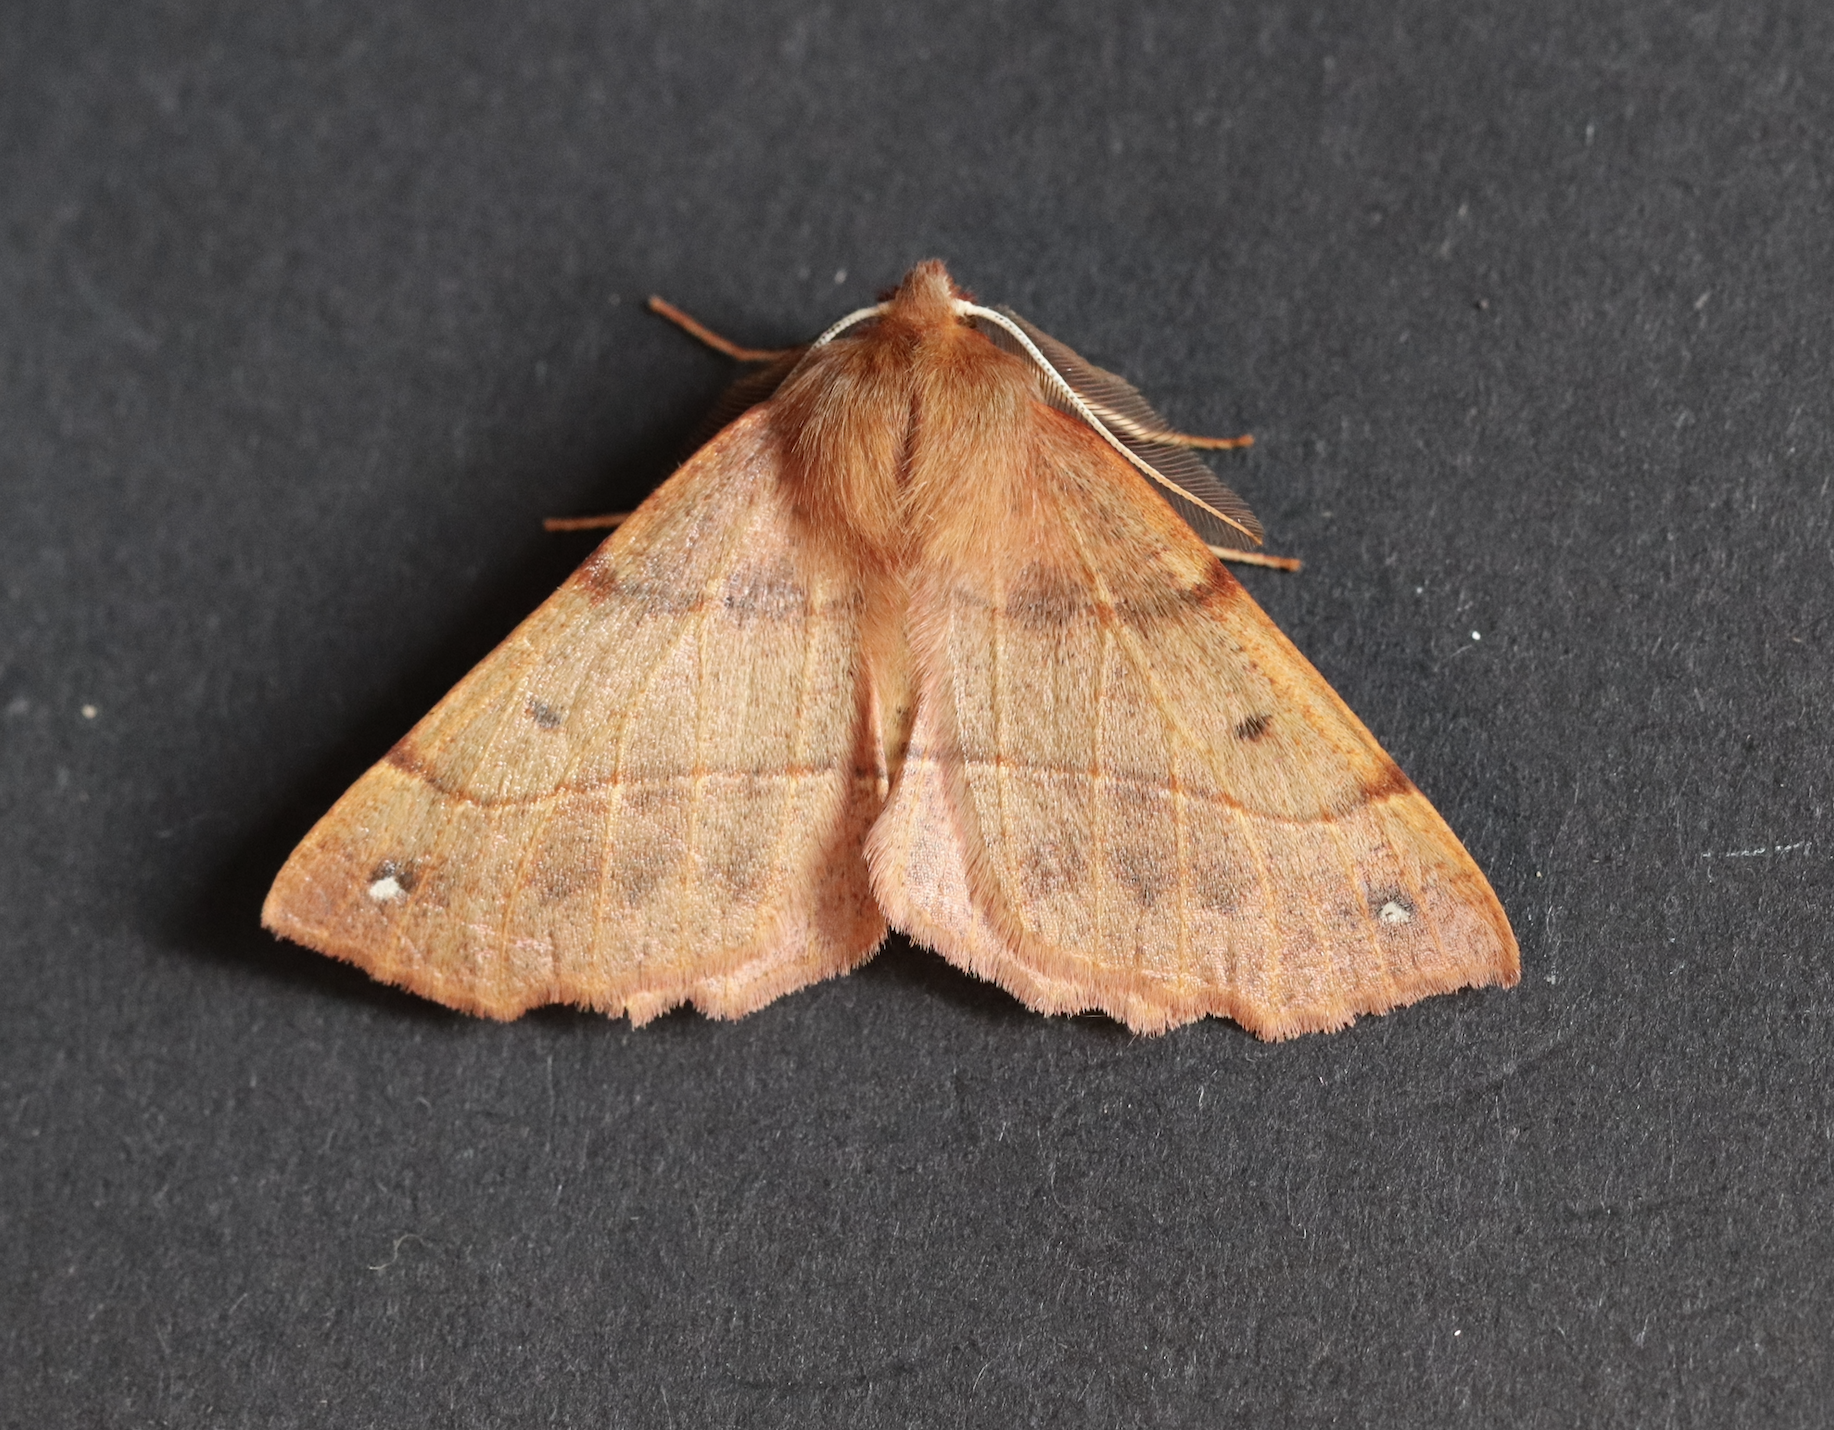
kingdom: Animalia
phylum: Arthropoda
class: Insecta
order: Lepidoptera
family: Geometridae
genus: Colotois
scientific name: Colotois pennaria
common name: Feathered thorn
